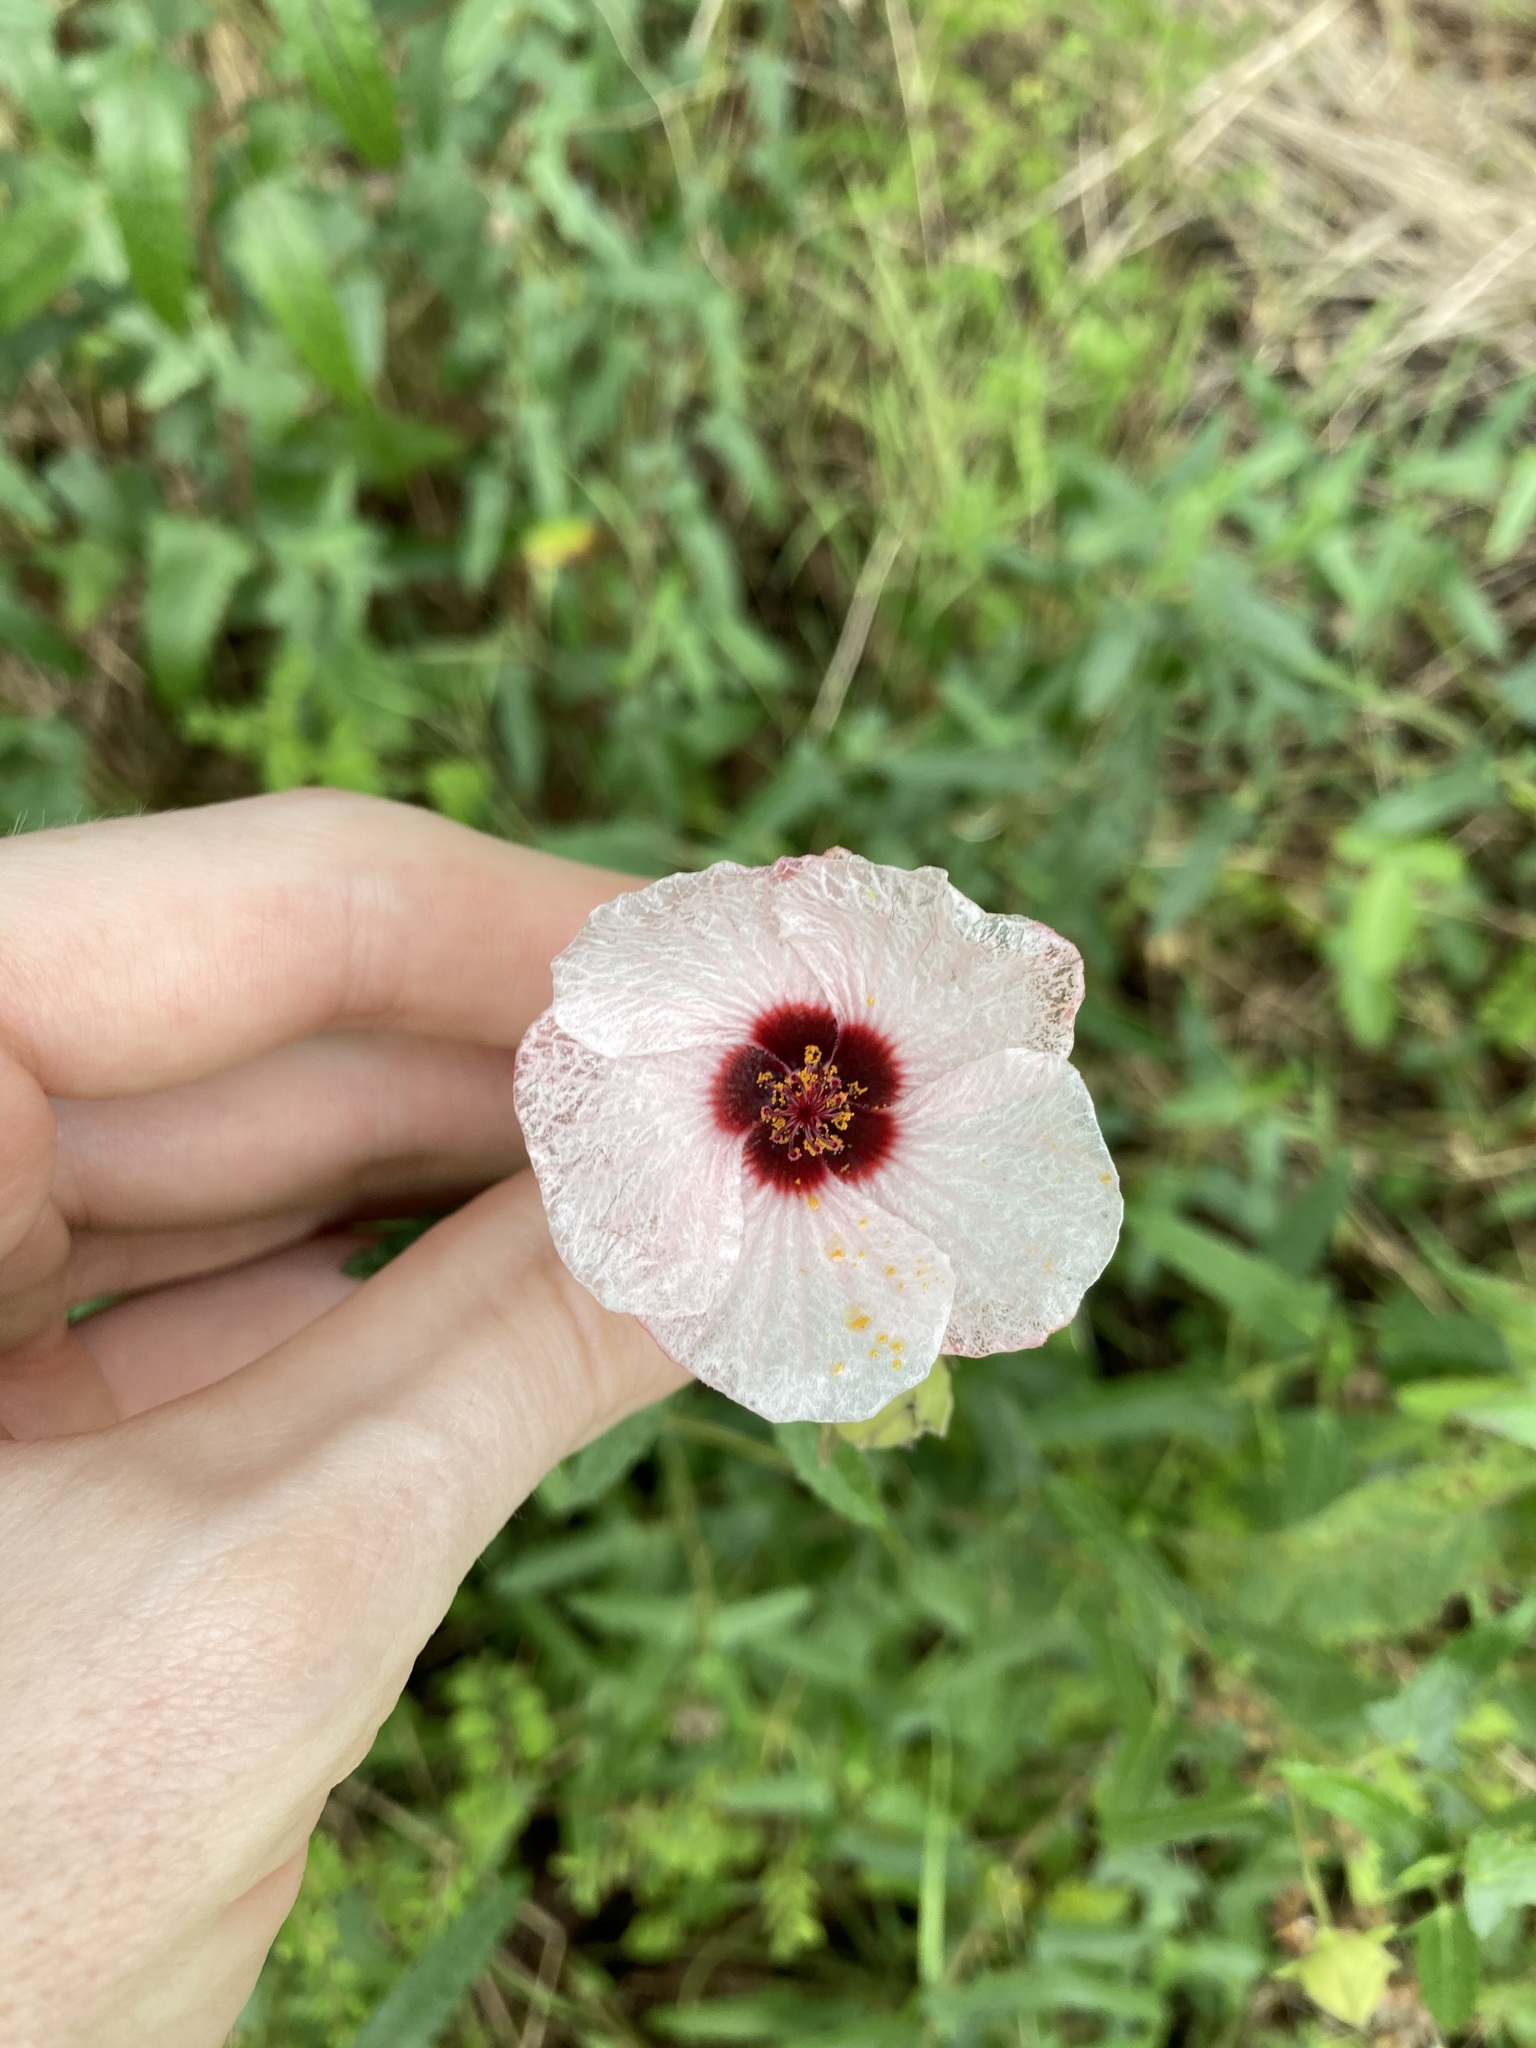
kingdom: Plantae
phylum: Tracheophyta
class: Magnoliopsida
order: Malvales
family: Malvaceae
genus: Pavonia
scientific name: Pavonia hastata
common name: Spearleaf swampmallow
